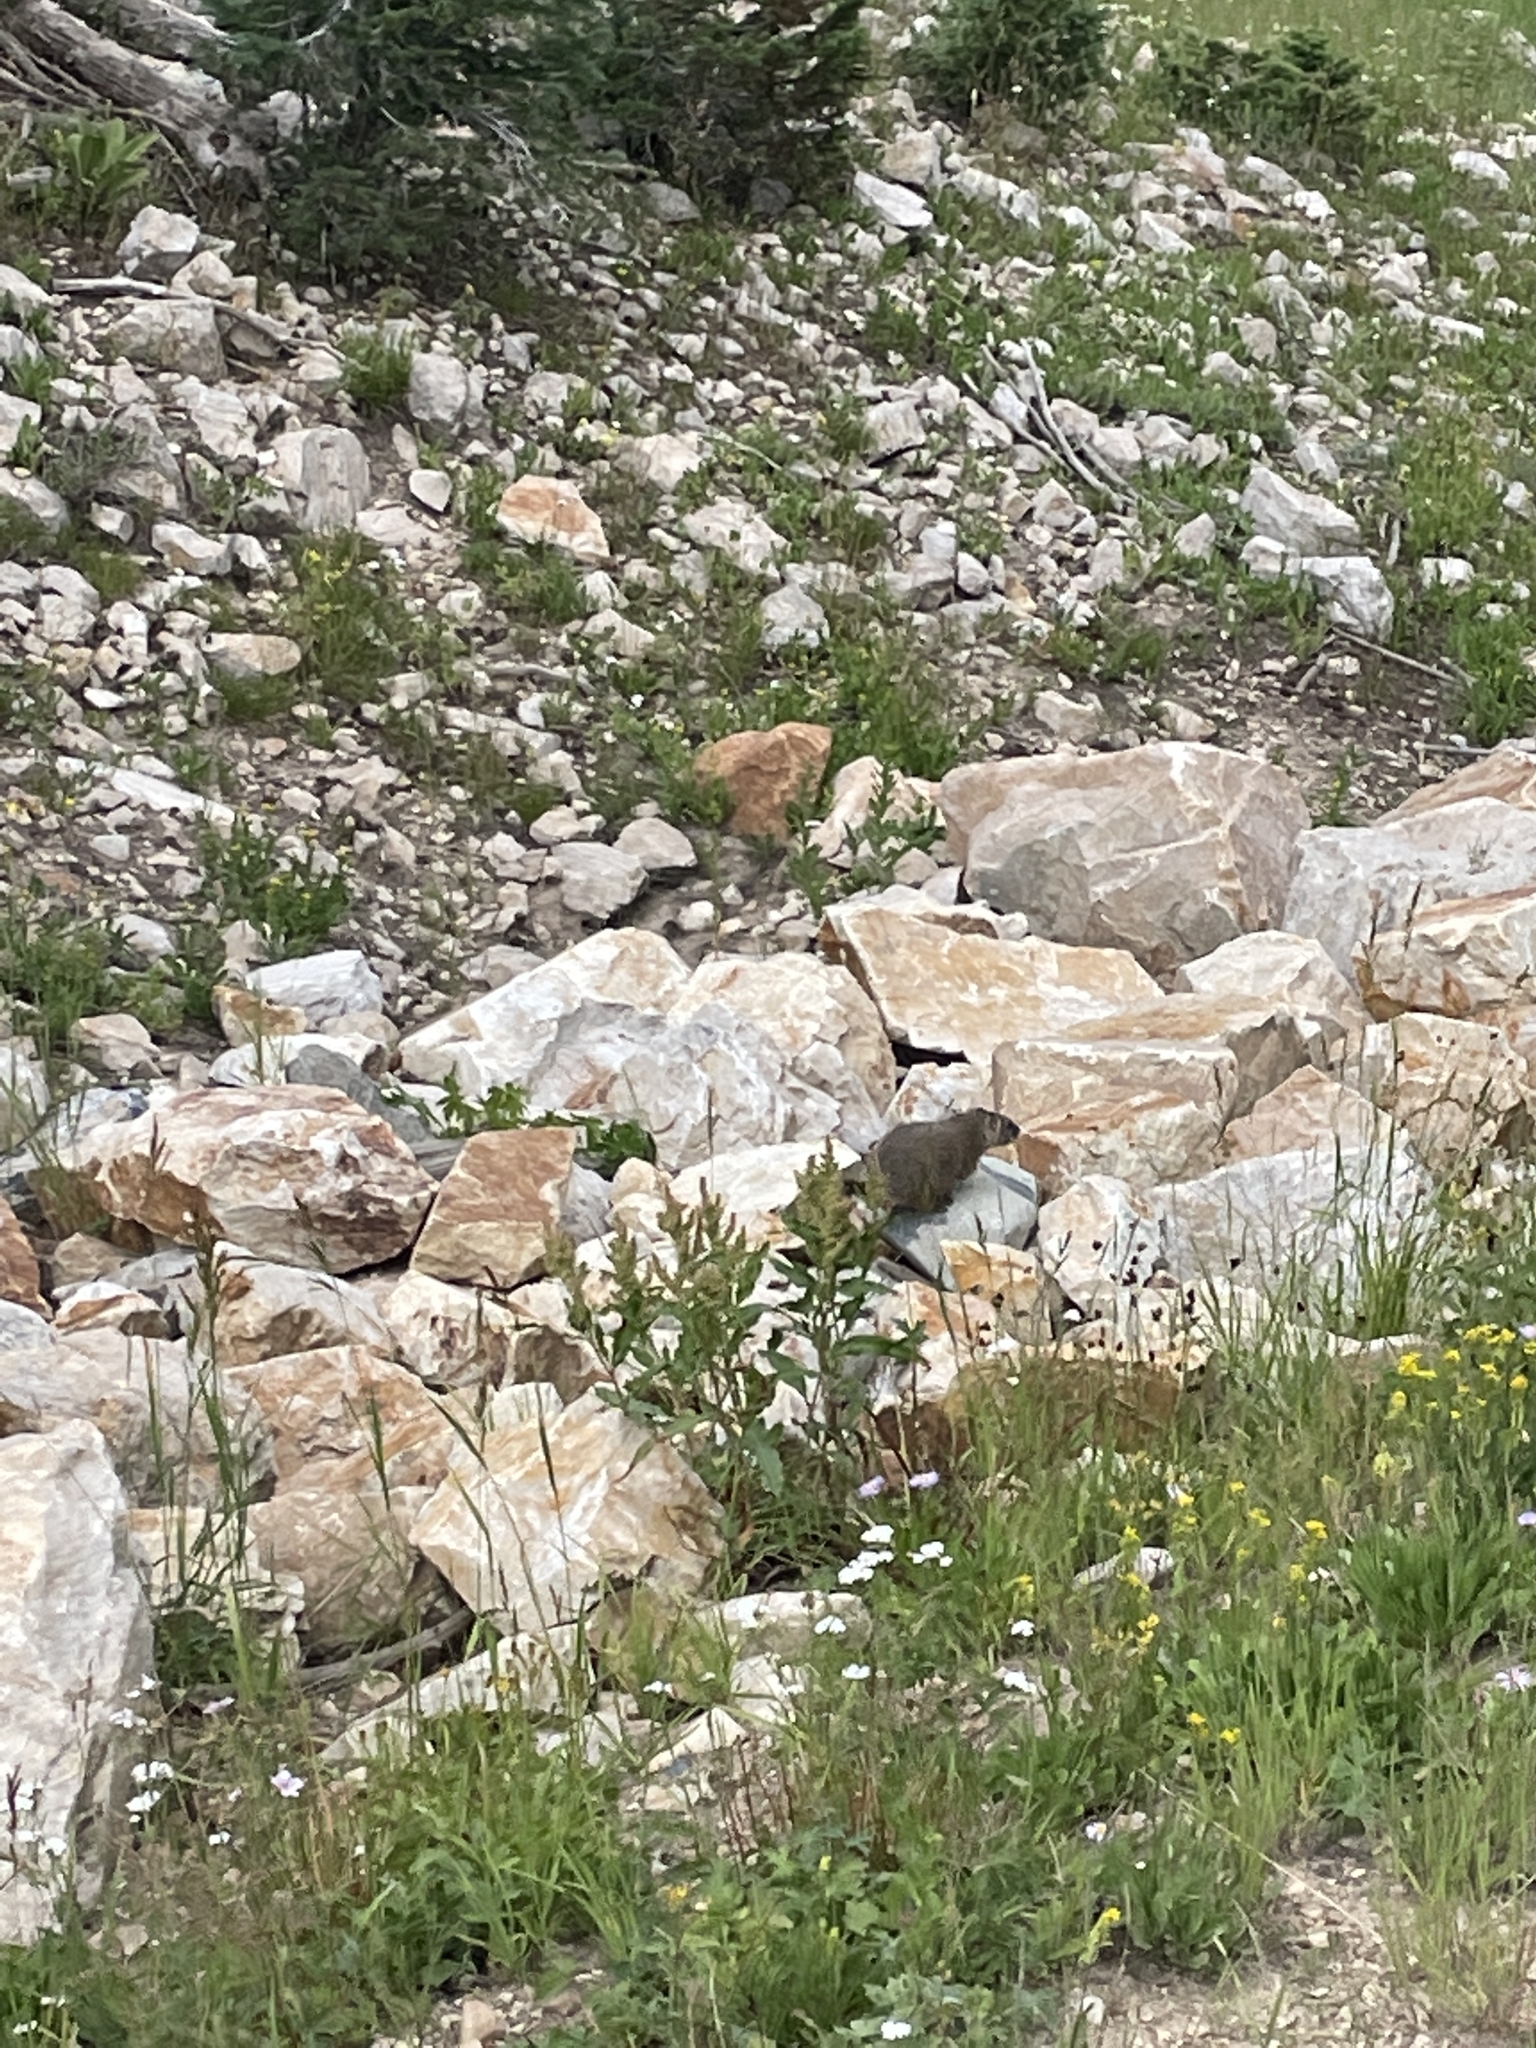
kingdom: Animalia
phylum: Chordata
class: Mammalia
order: Rodentia
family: Sciuridae
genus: Marmota
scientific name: Marmota flaviventris
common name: Yellow-bellied marmot
